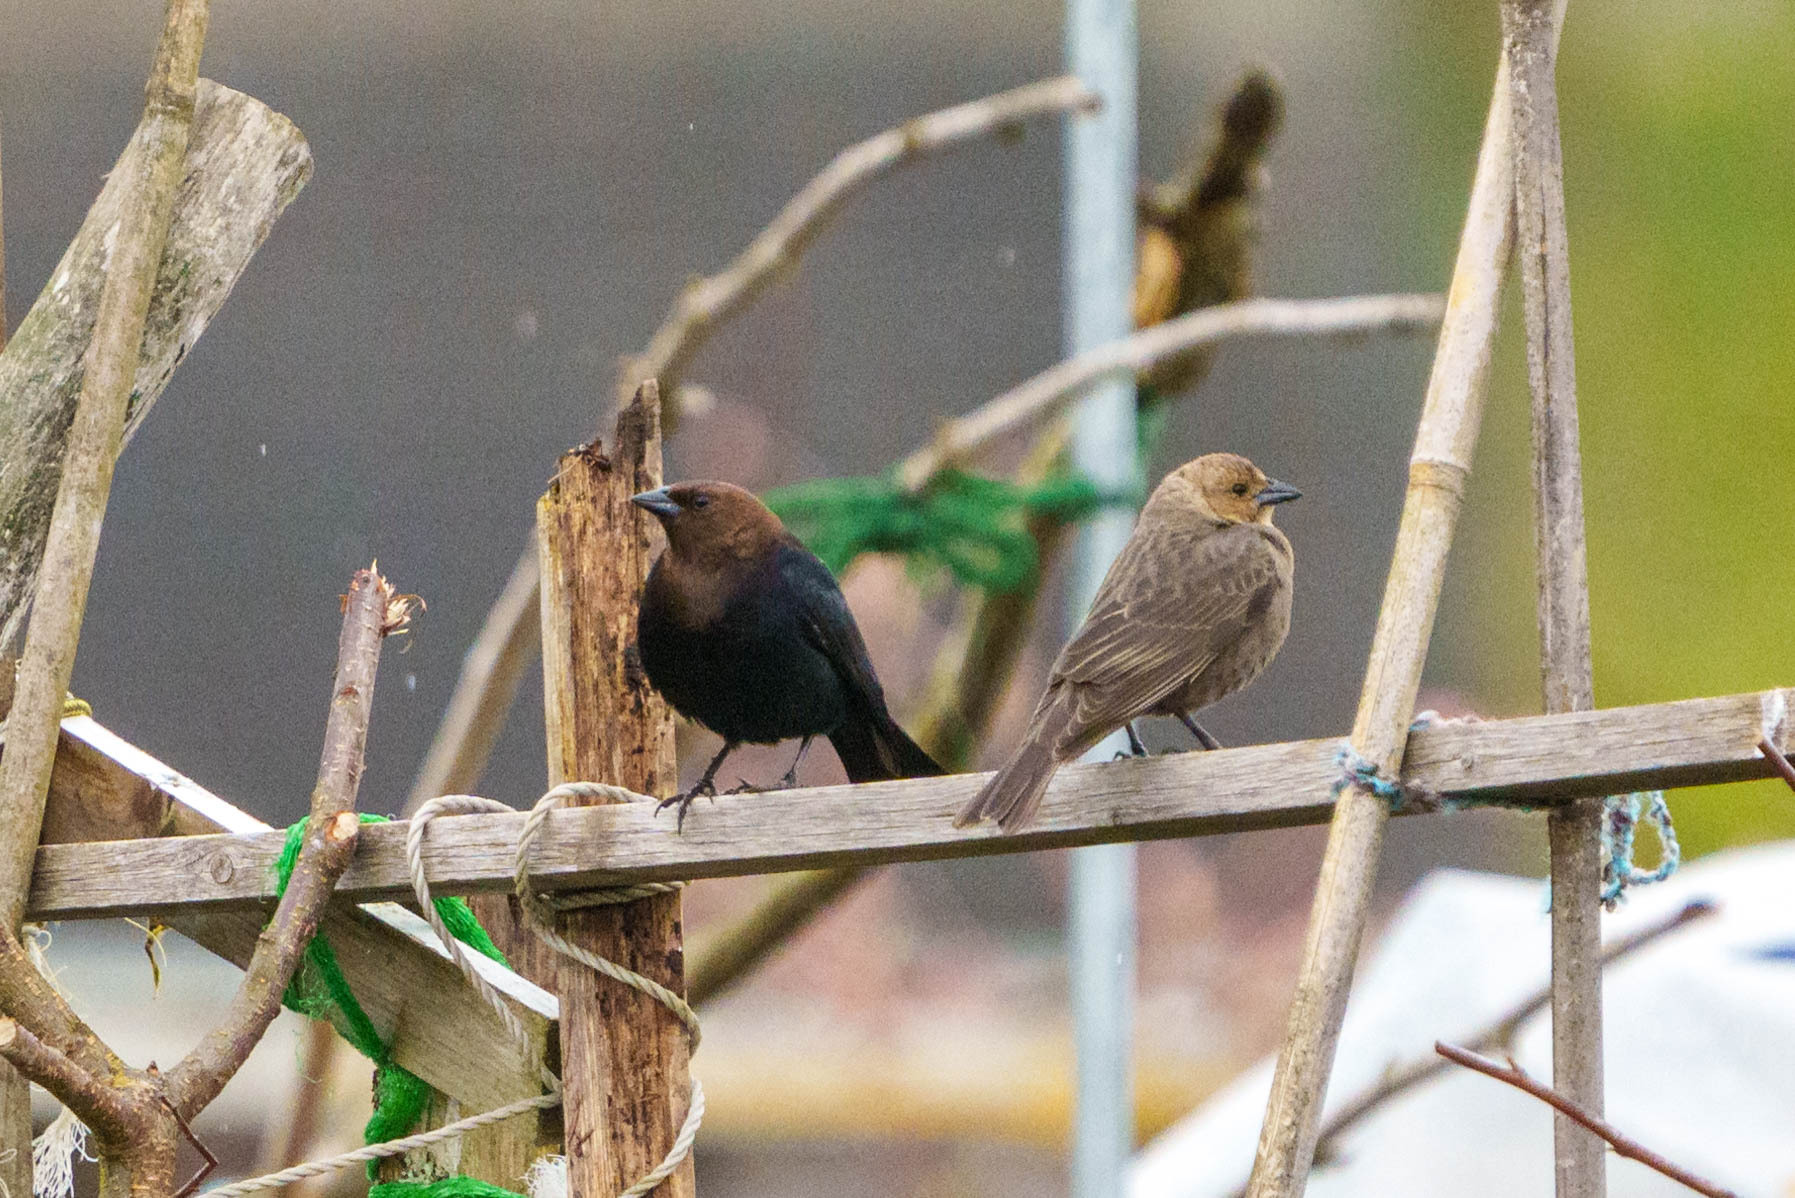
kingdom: Animalia
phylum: Chordata
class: Aves
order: Passeriformes
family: Icteridae
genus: Molothrus
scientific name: Molothrus ater
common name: Brown-headed cowbird
